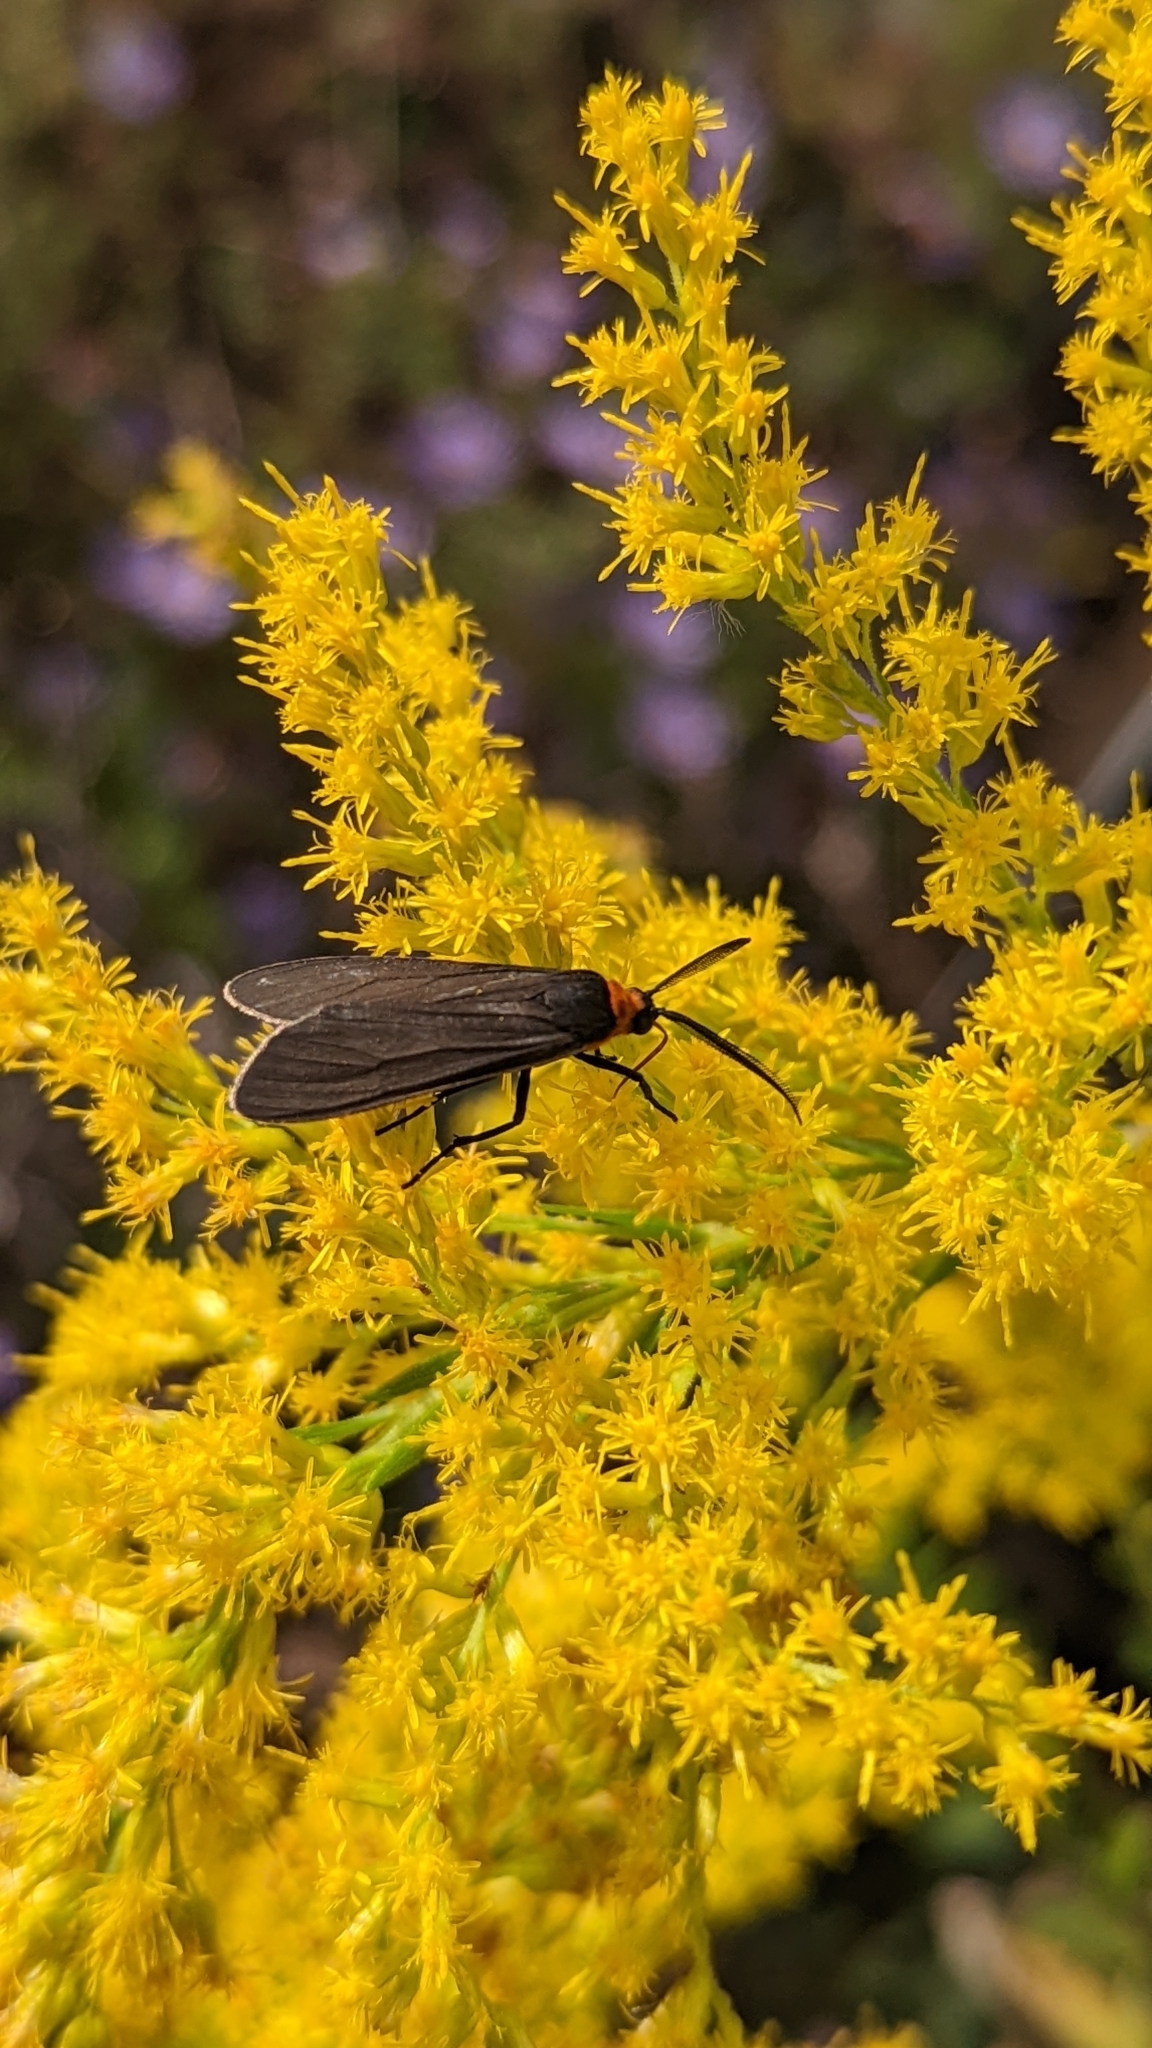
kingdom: Animalia
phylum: Arthropoda
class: Insecta
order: Lepidoptera
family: Erebidae
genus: Cisseps
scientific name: Cisseps fulvicollis
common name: Yellow-collared scape moth
